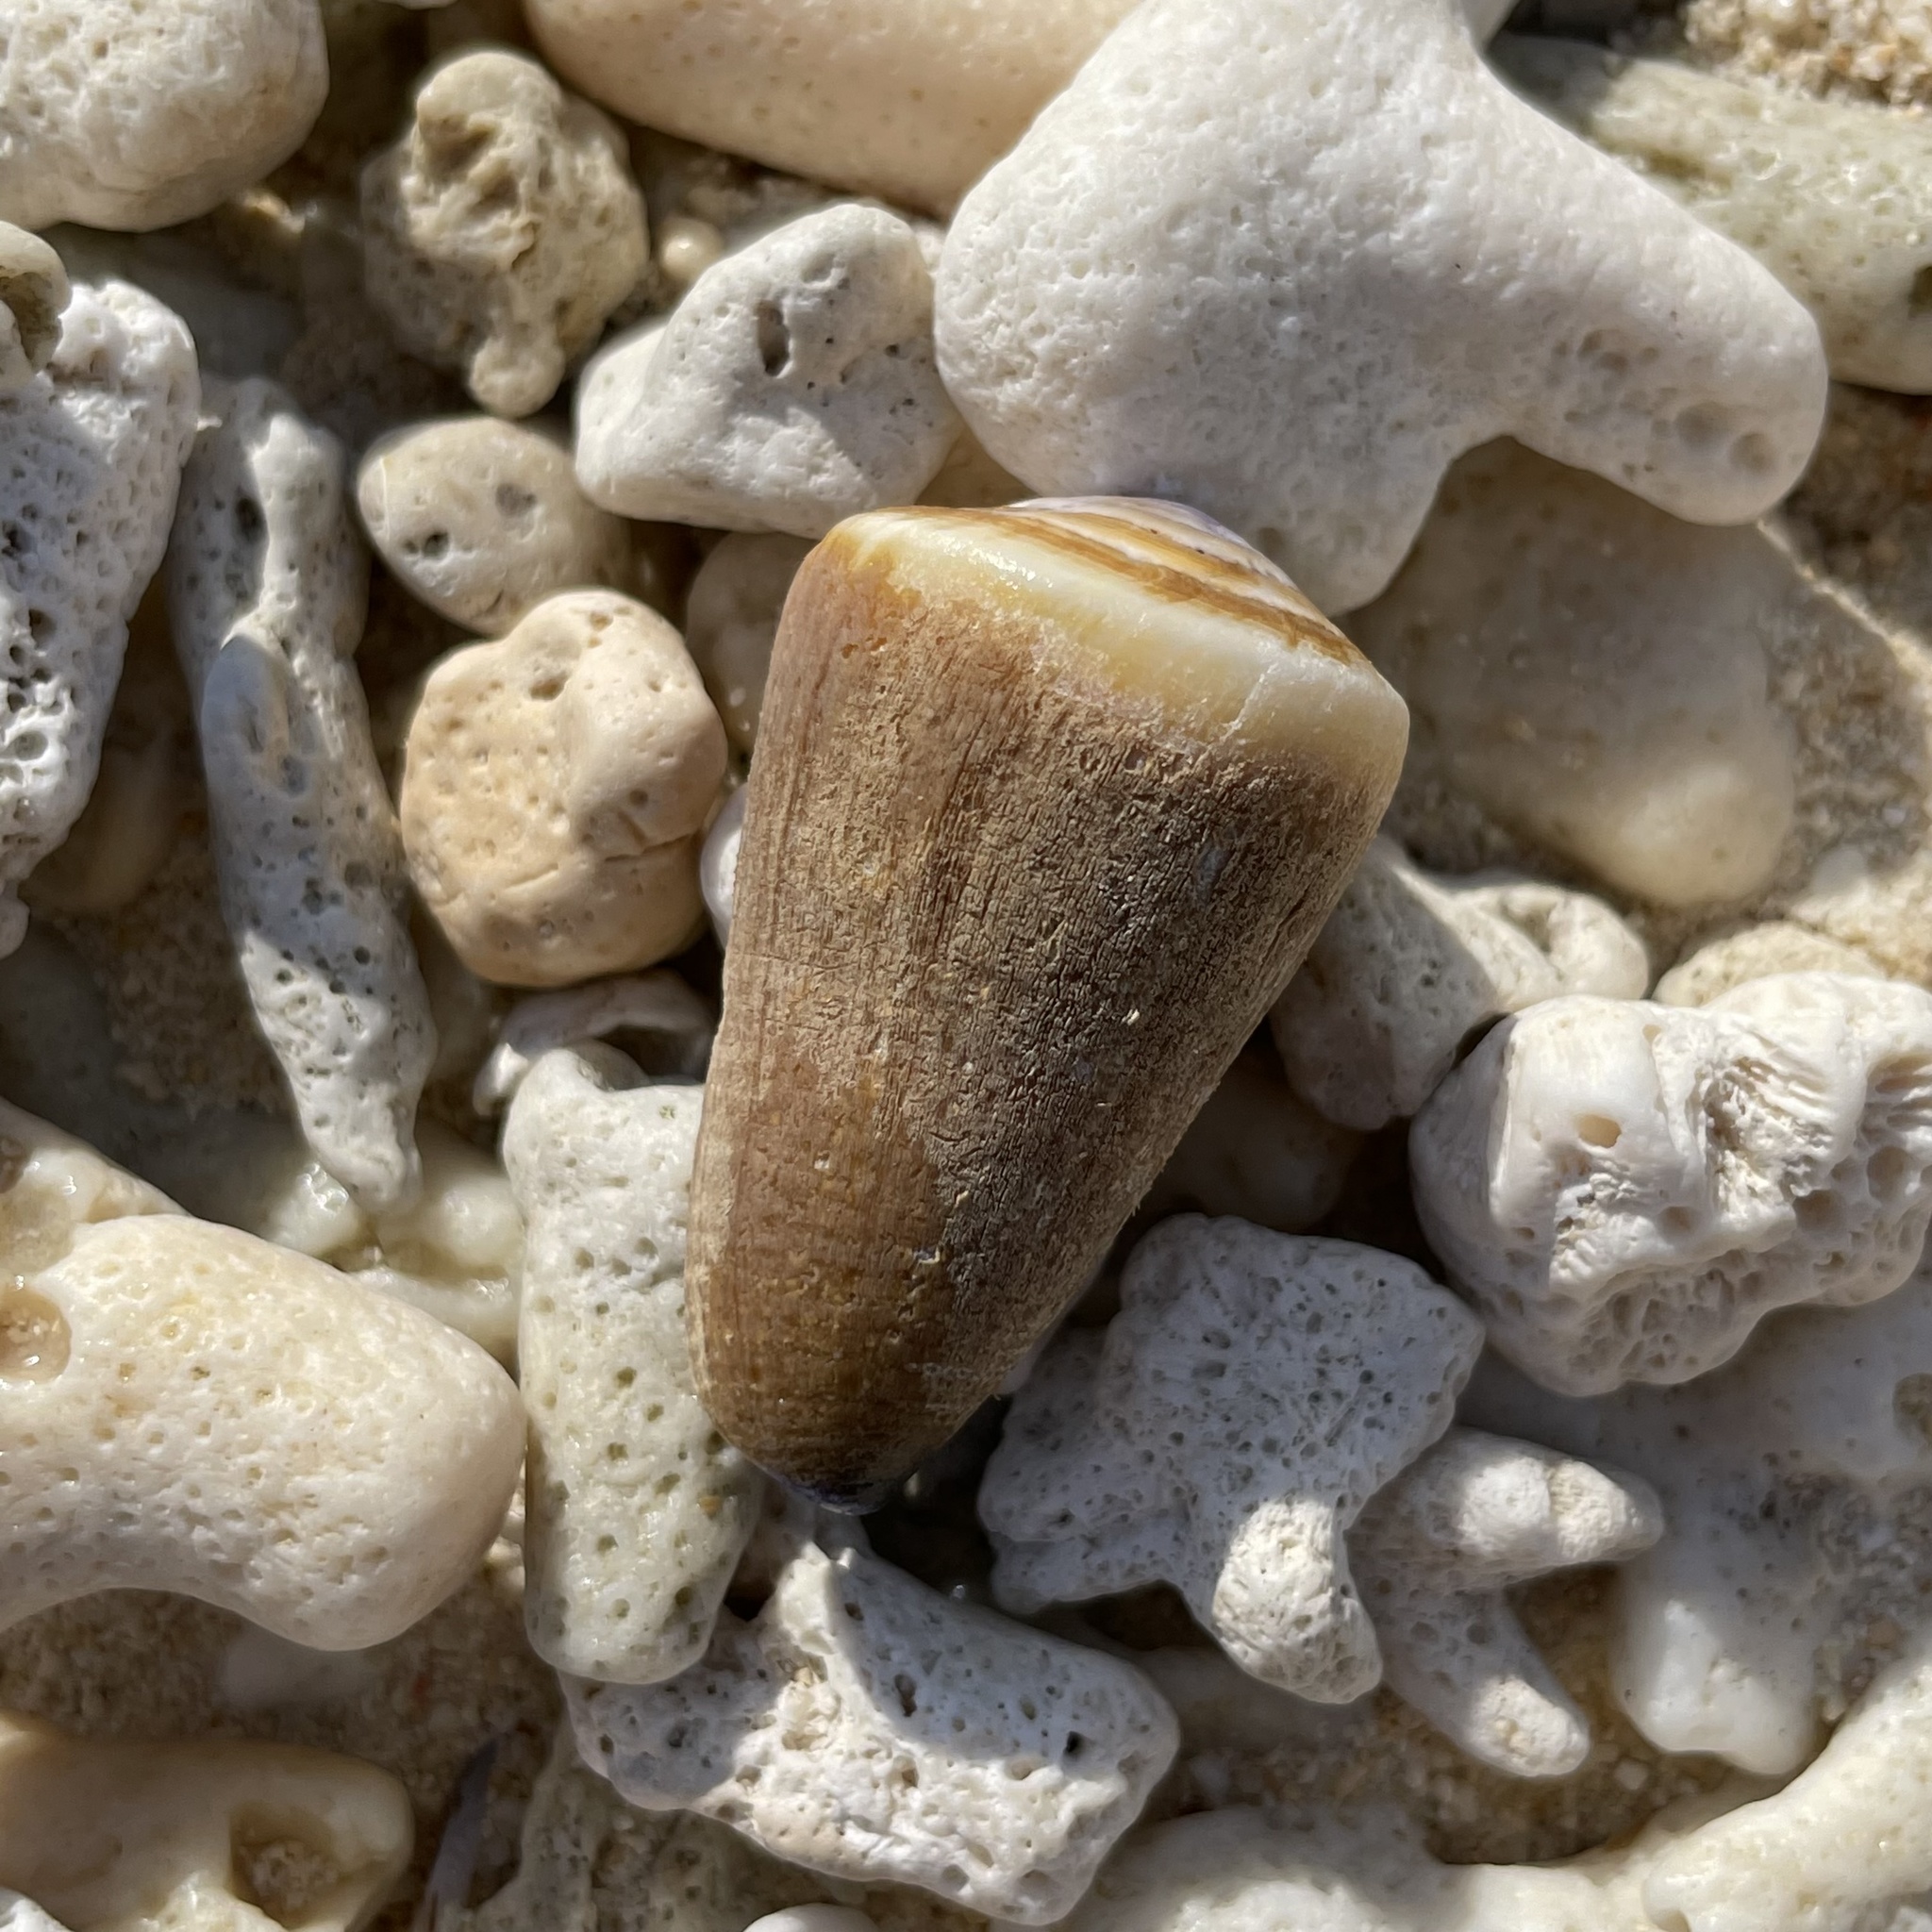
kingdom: Animalia
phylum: Mollusca
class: Gastropoda
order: Neogastropoda
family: Conidae
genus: Conus
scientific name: Conus flavidus
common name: Golden-yellow cone
